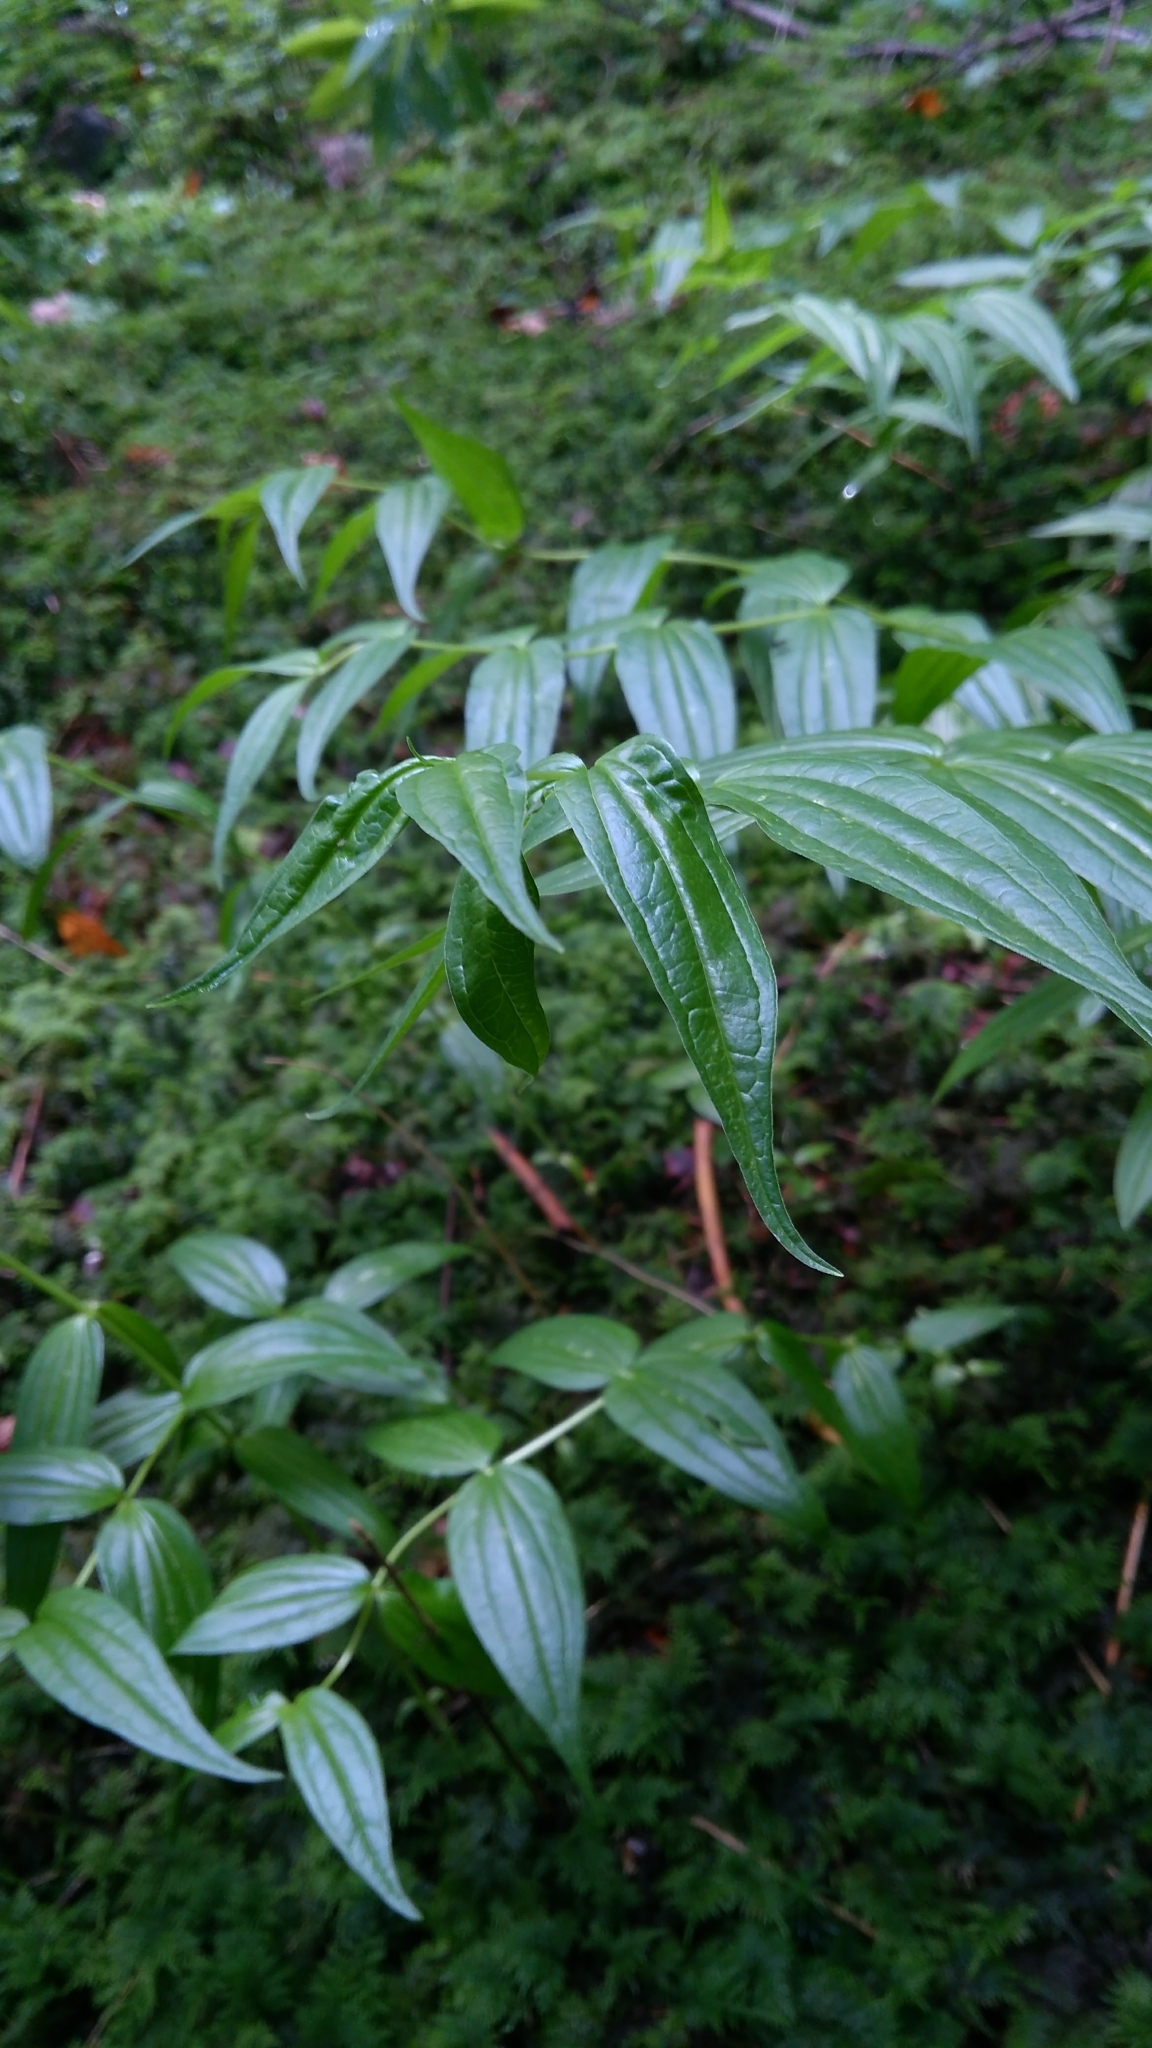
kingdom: Plantae
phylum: Tracheophyta
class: Magnoliopsida
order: Gentianales
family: Gentianaceae
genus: Gentiana
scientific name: Gentiana asclepiadea
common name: Willow gentian
